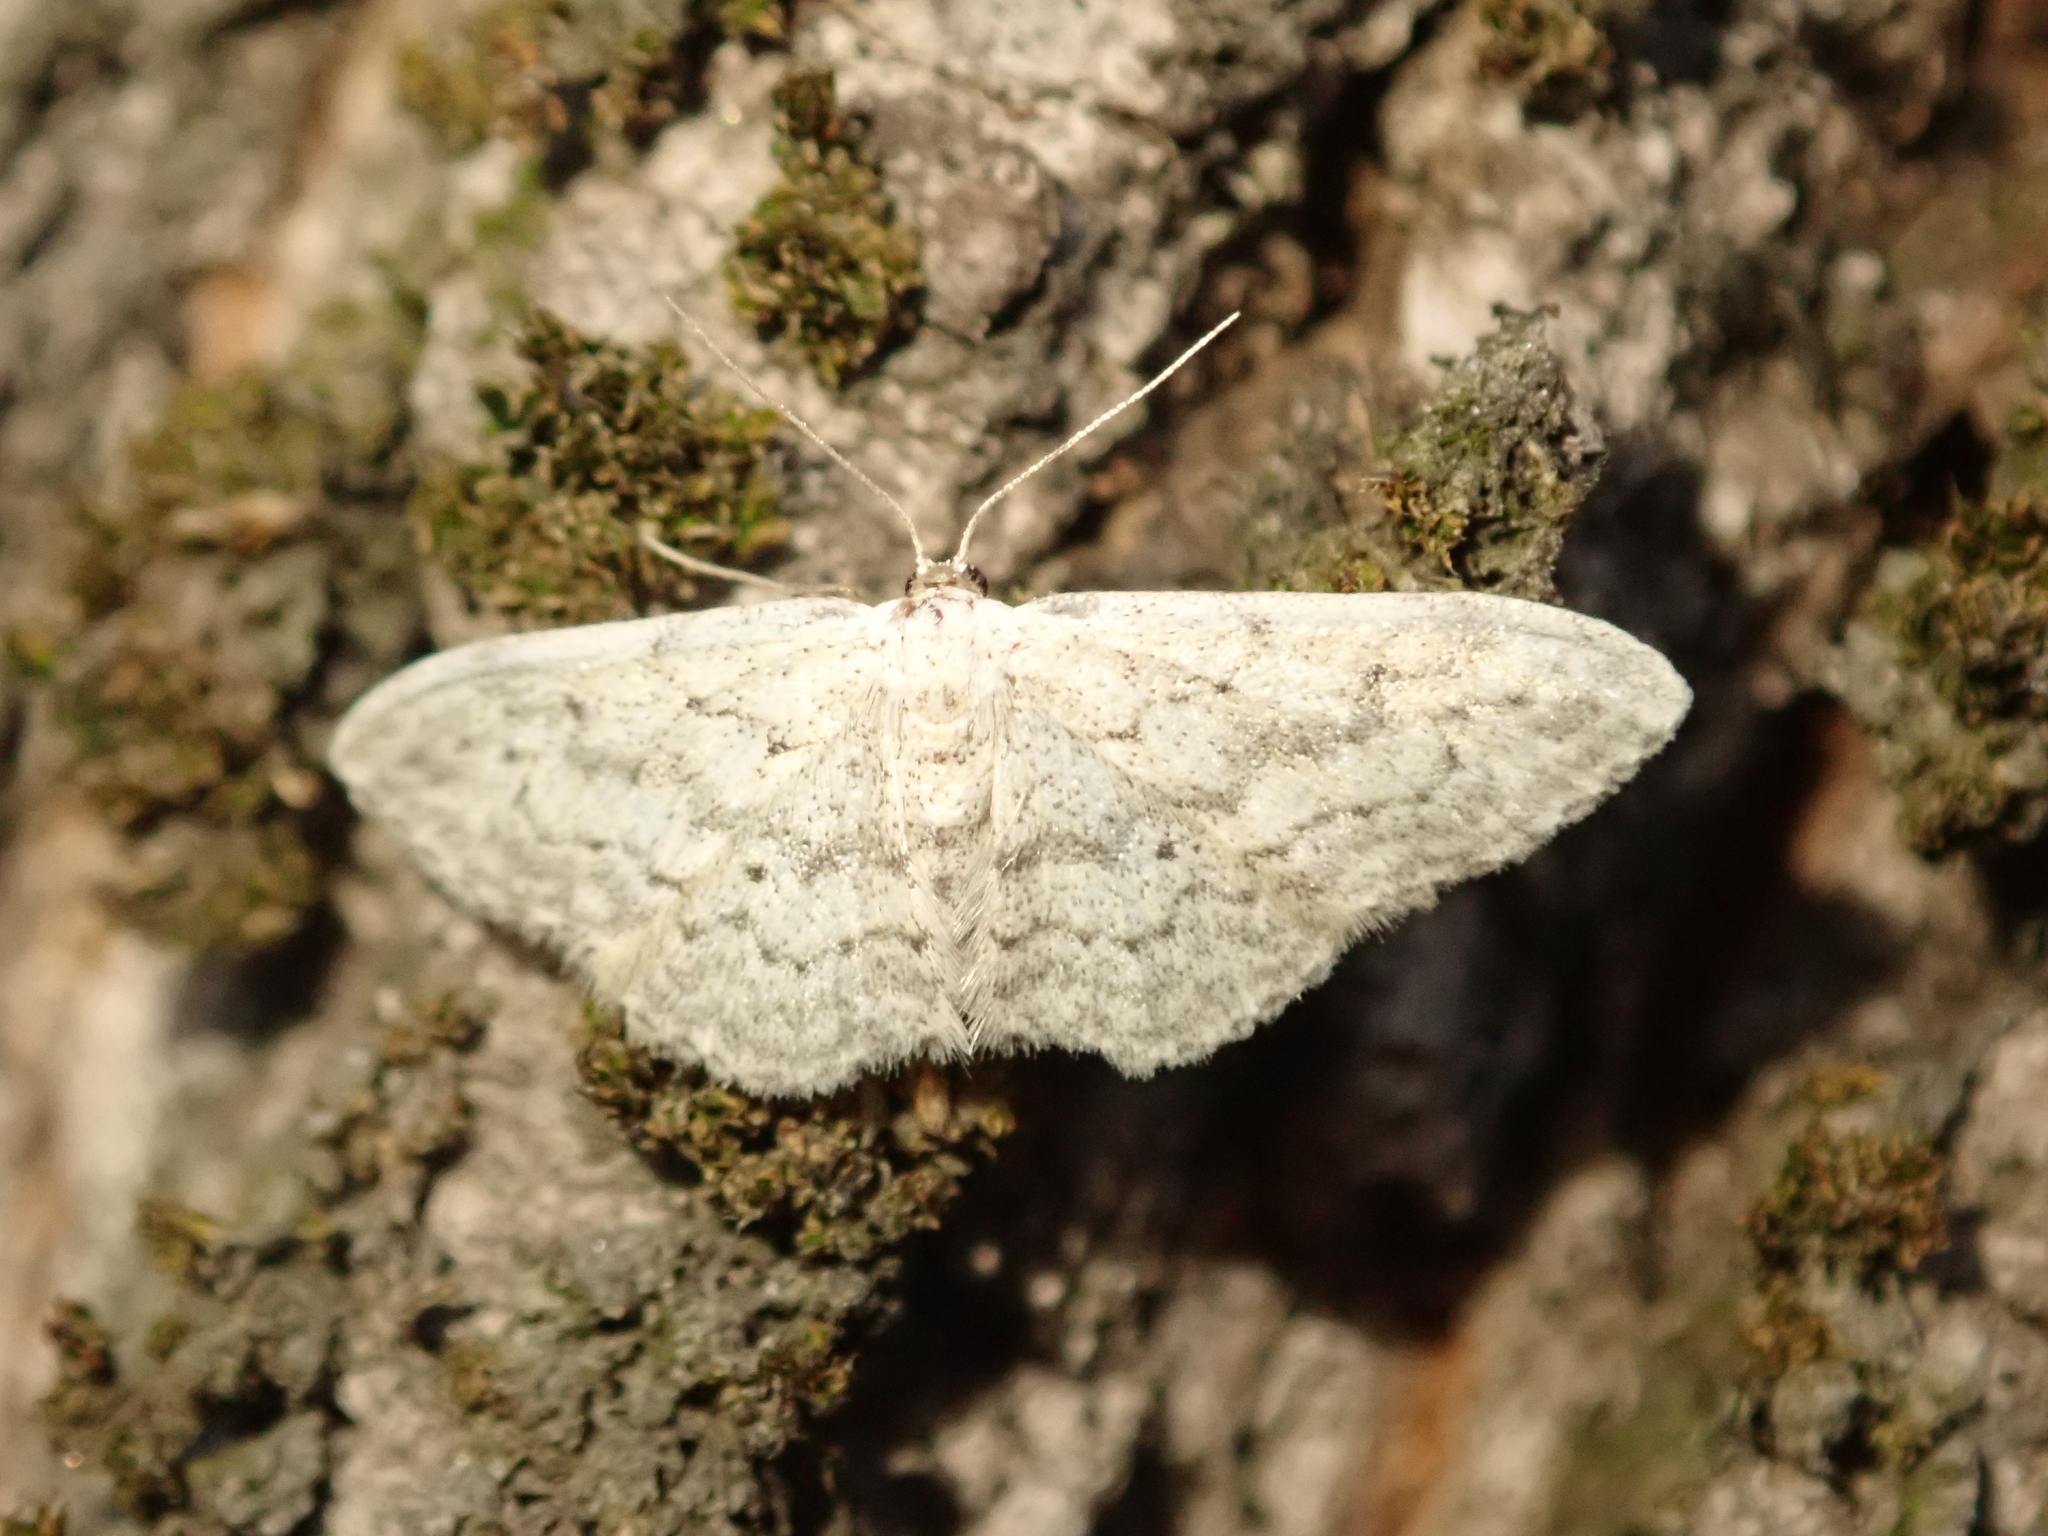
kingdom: Animalia
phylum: Arthropoda
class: Insecta
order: Lepidoptera
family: Geometridae
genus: Idaea
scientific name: Idaea seriata
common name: Small dusty wave
